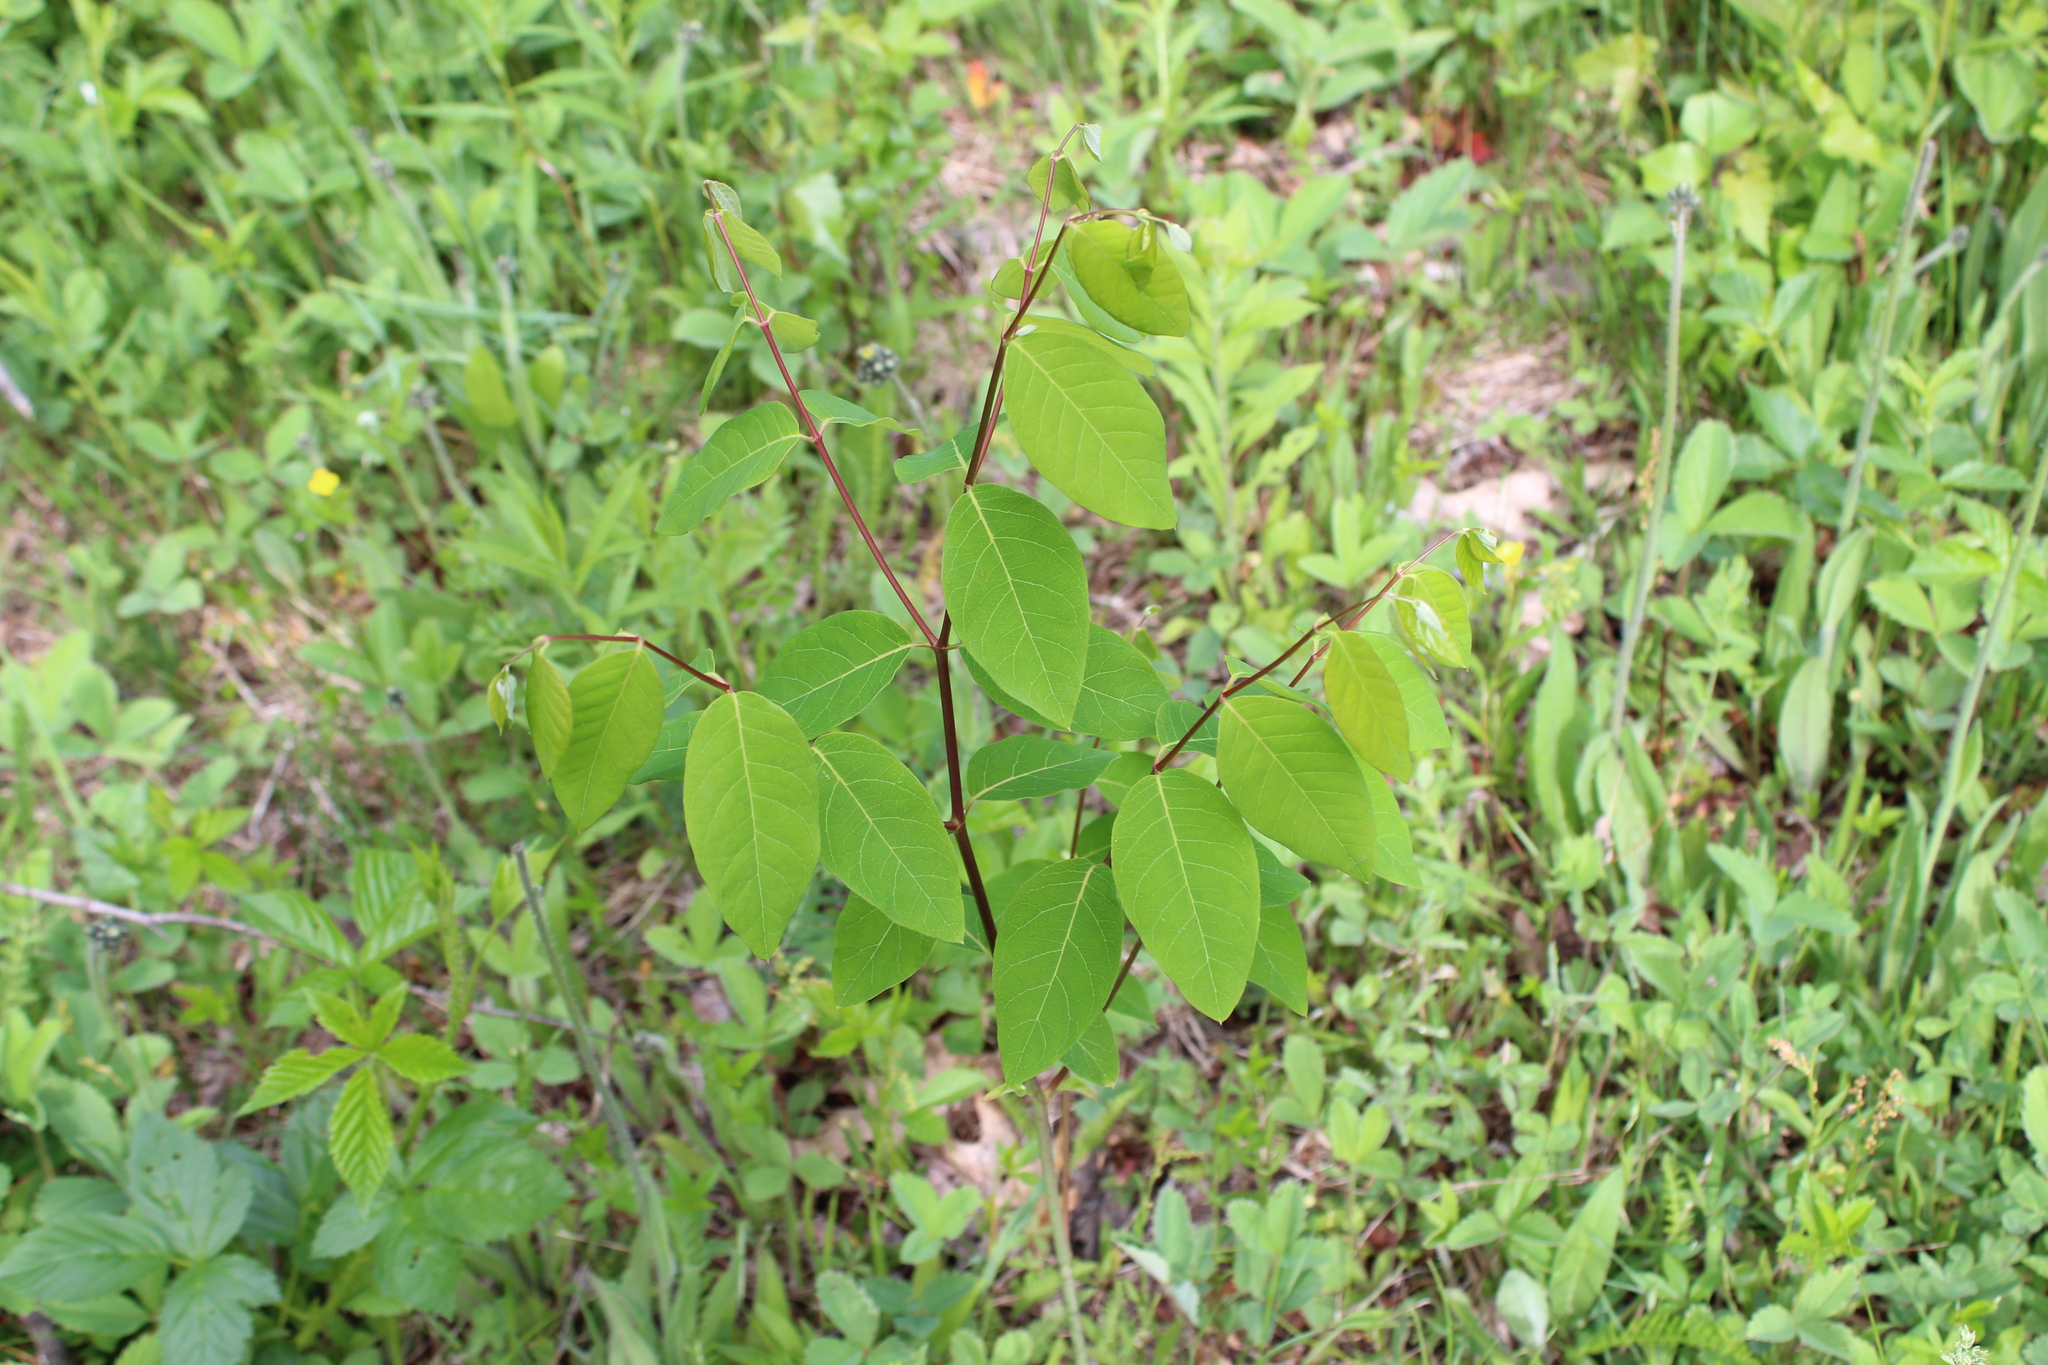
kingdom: Plantae
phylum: Tracheophyta
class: Magnoliopsida
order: Gentianales
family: Apocynaceae
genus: Apocynum
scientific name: Apocynum androsaemifolium
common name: Spreading dogbane
